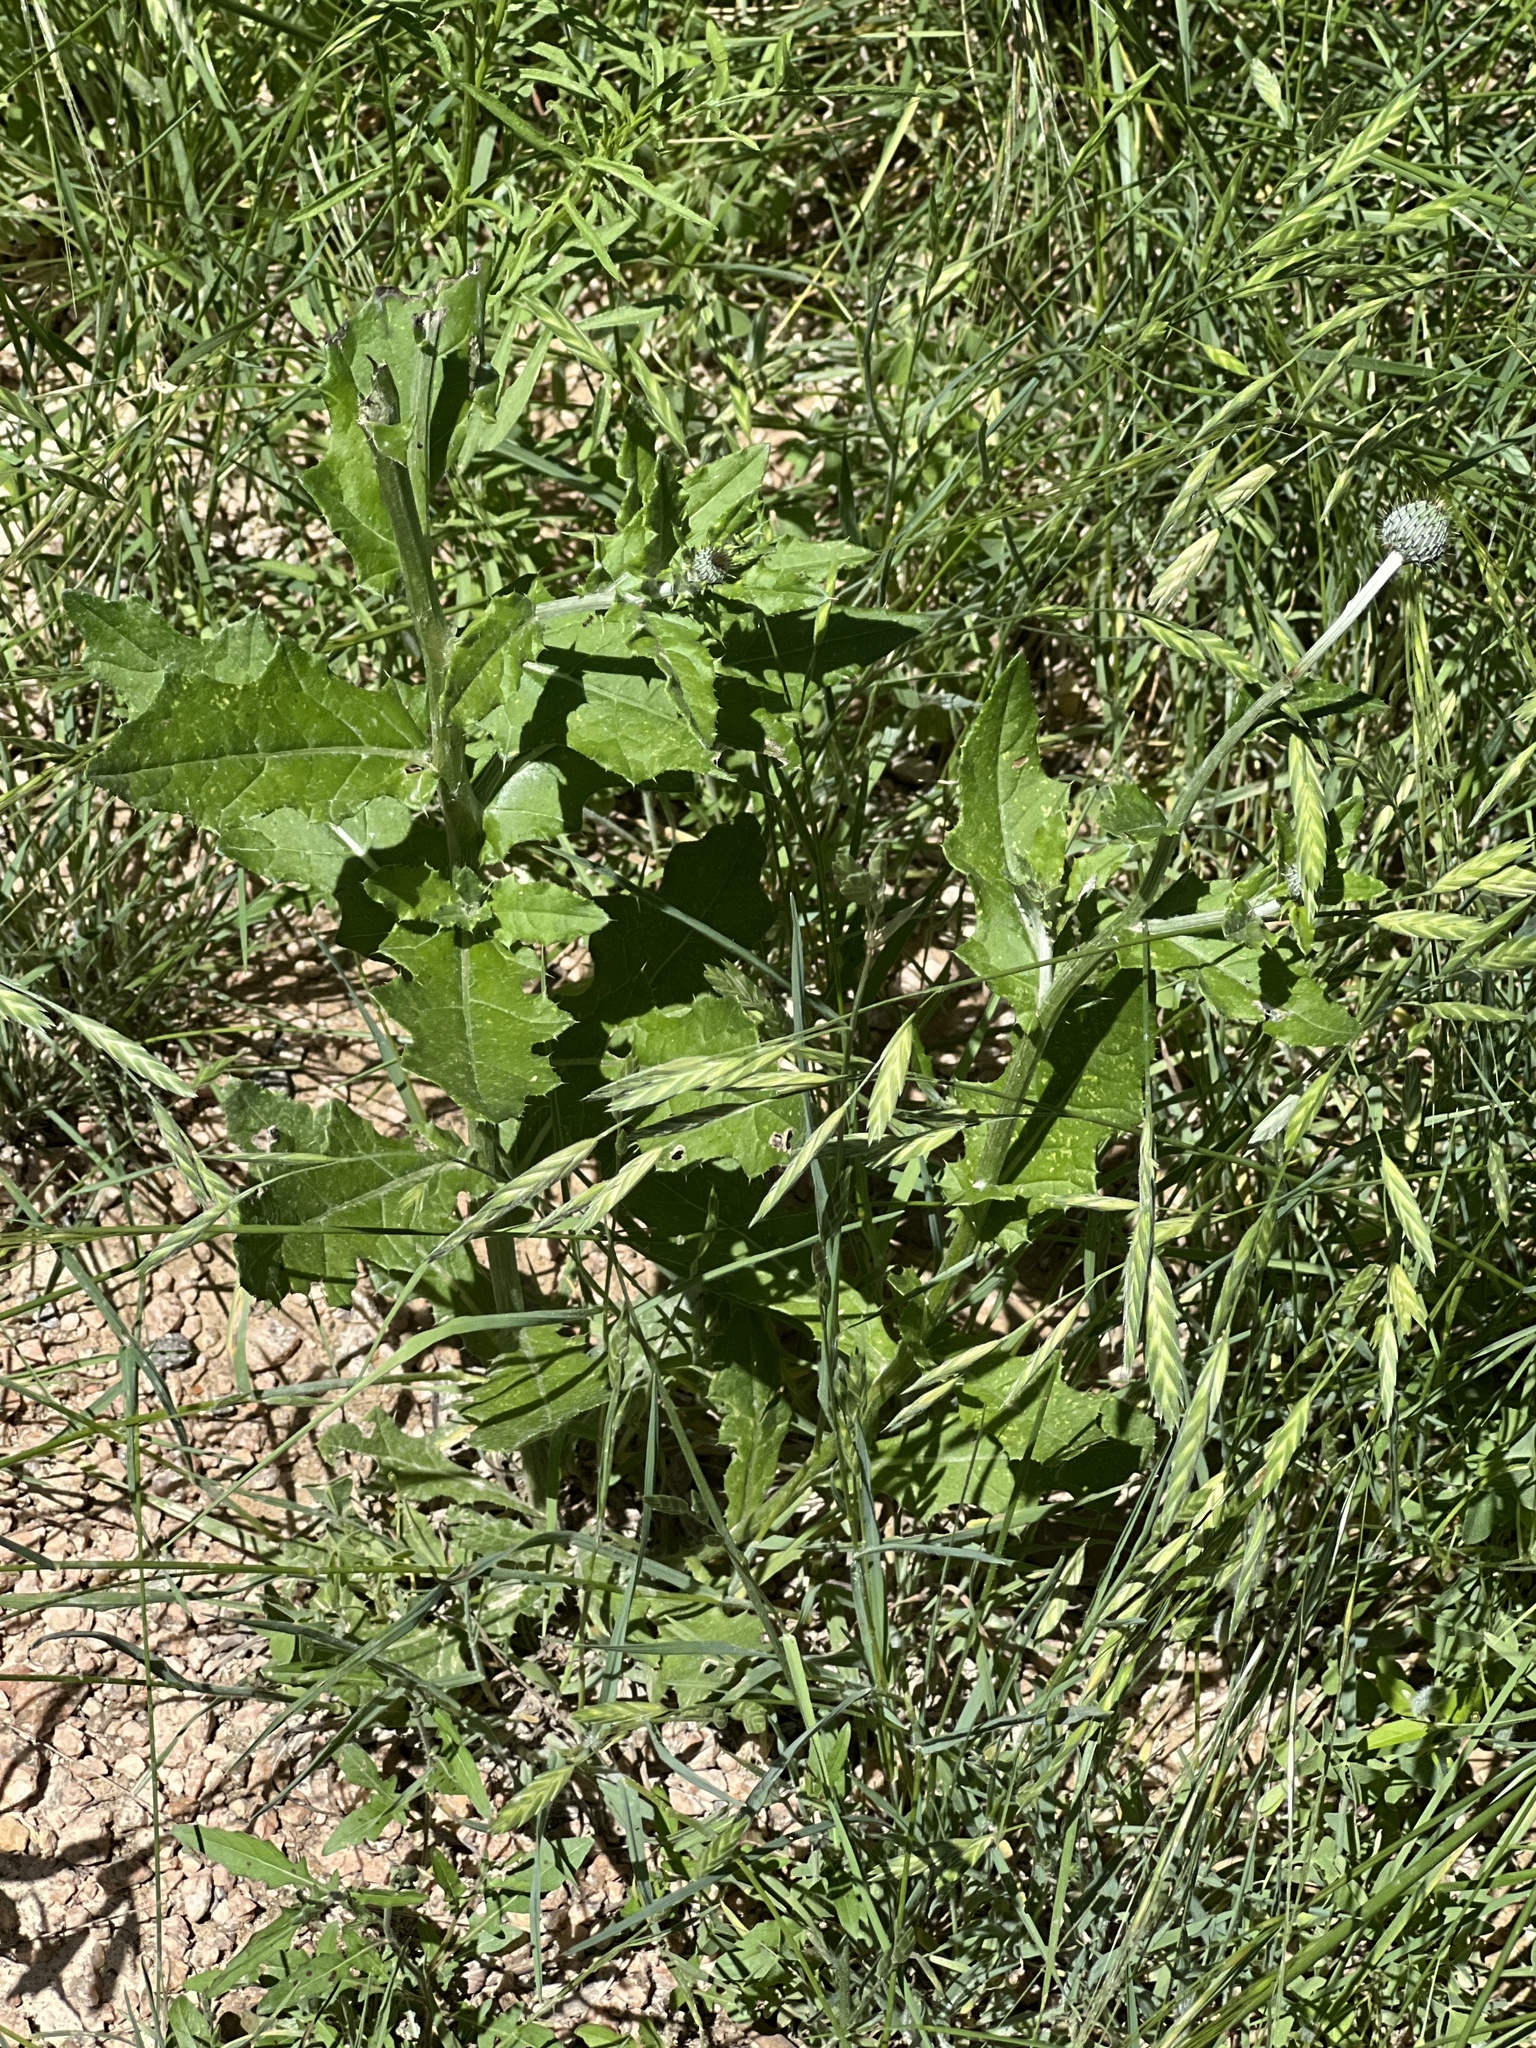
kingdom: Plantae
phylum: Tracheophyta
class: Magnoliopsida
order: Asterales
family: Asteraceae
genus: Cirsium
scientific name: Cirsium texanum
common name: Texas purple thistle
